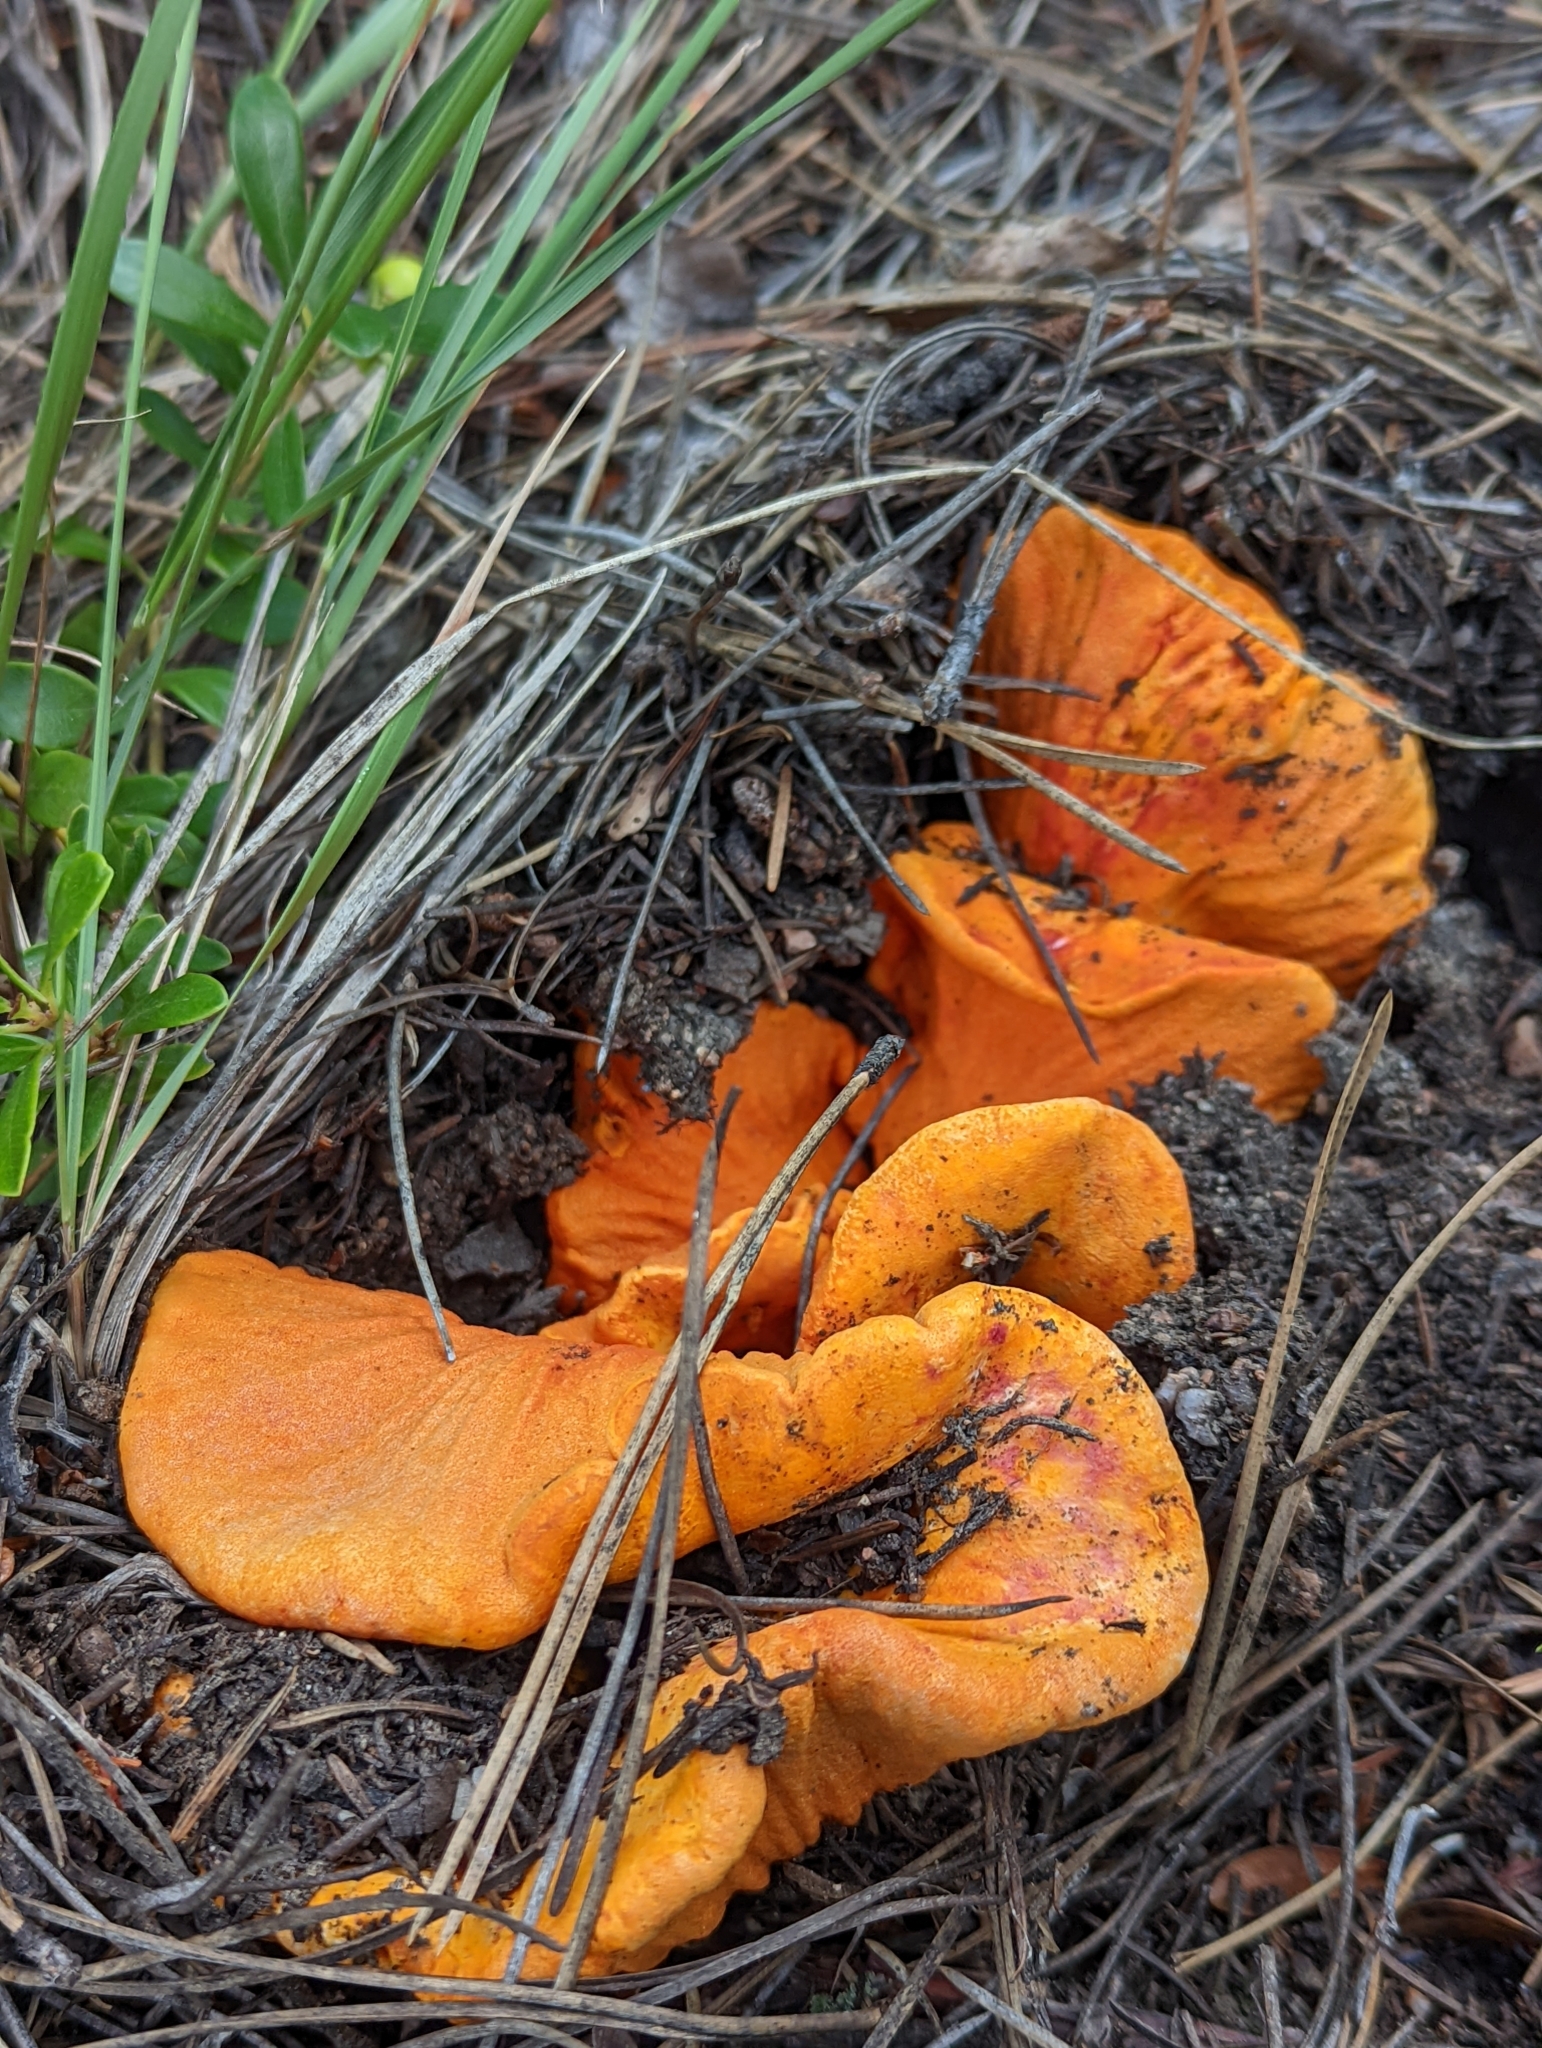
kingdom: Fungi
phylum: Ascomycota
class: Sordariomycetes
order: Hypocreales
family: Hypocreaceae
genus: Hypomyces
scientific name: Hypomyces lactifluorum
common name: Lobster mushroom
